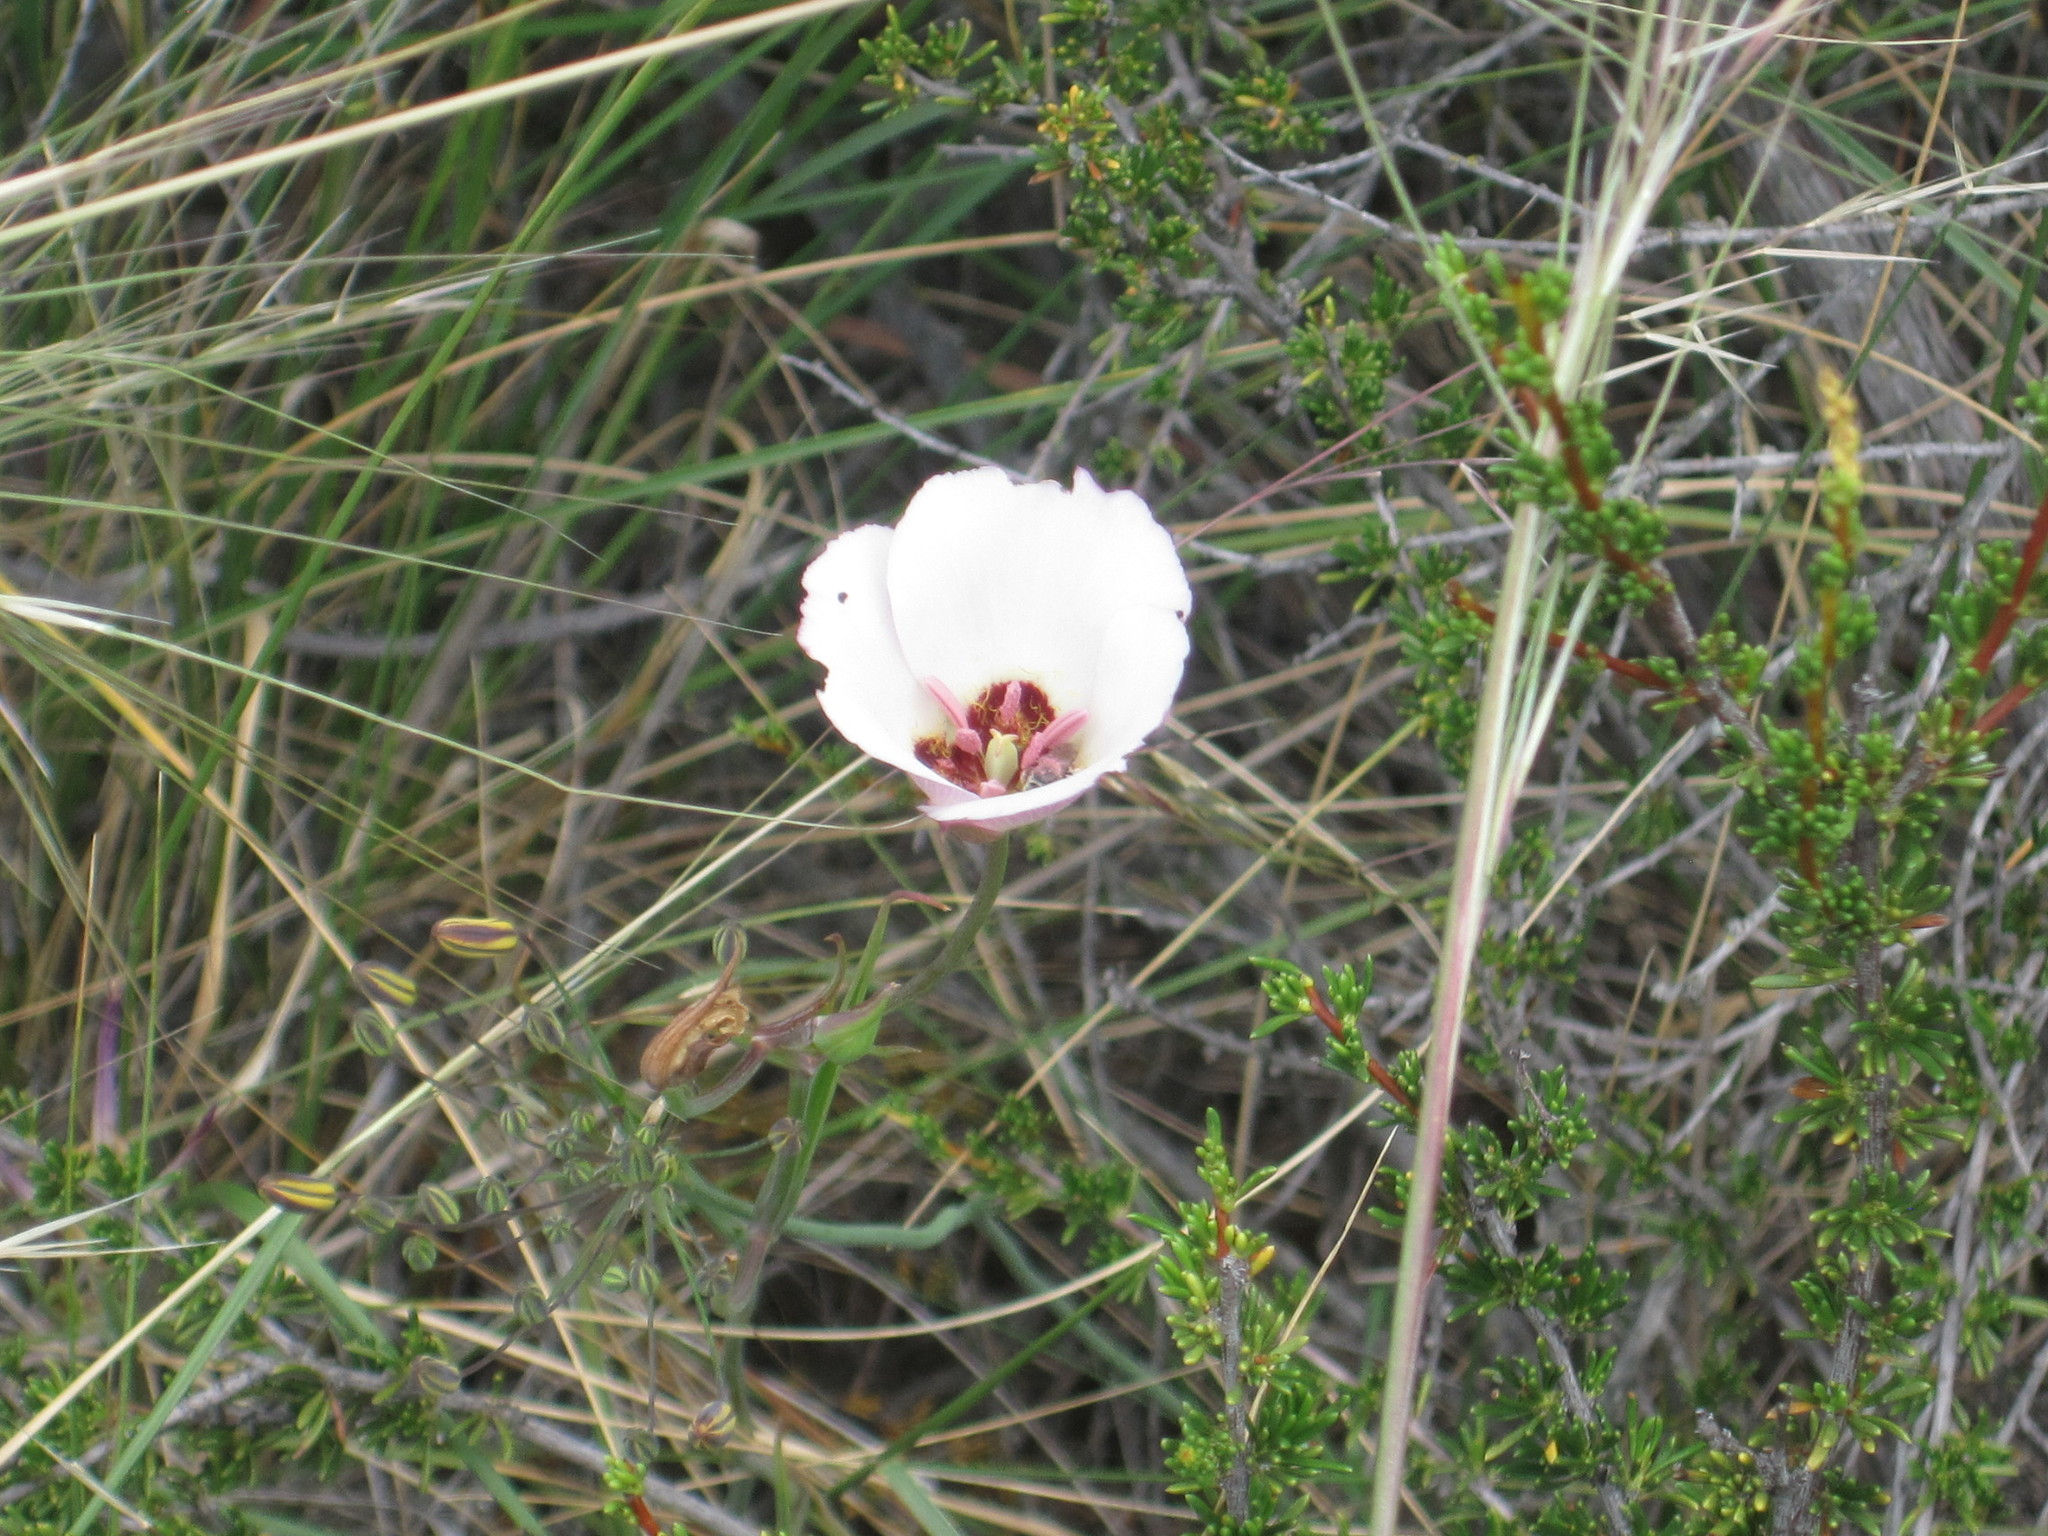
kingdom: Plantae
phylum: Tracheophyta
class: Liliopsida
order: Liliales
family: Liliaceae
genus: Calochortus
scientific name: Calochortus catalinae
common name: Catalina mariposa-lily
